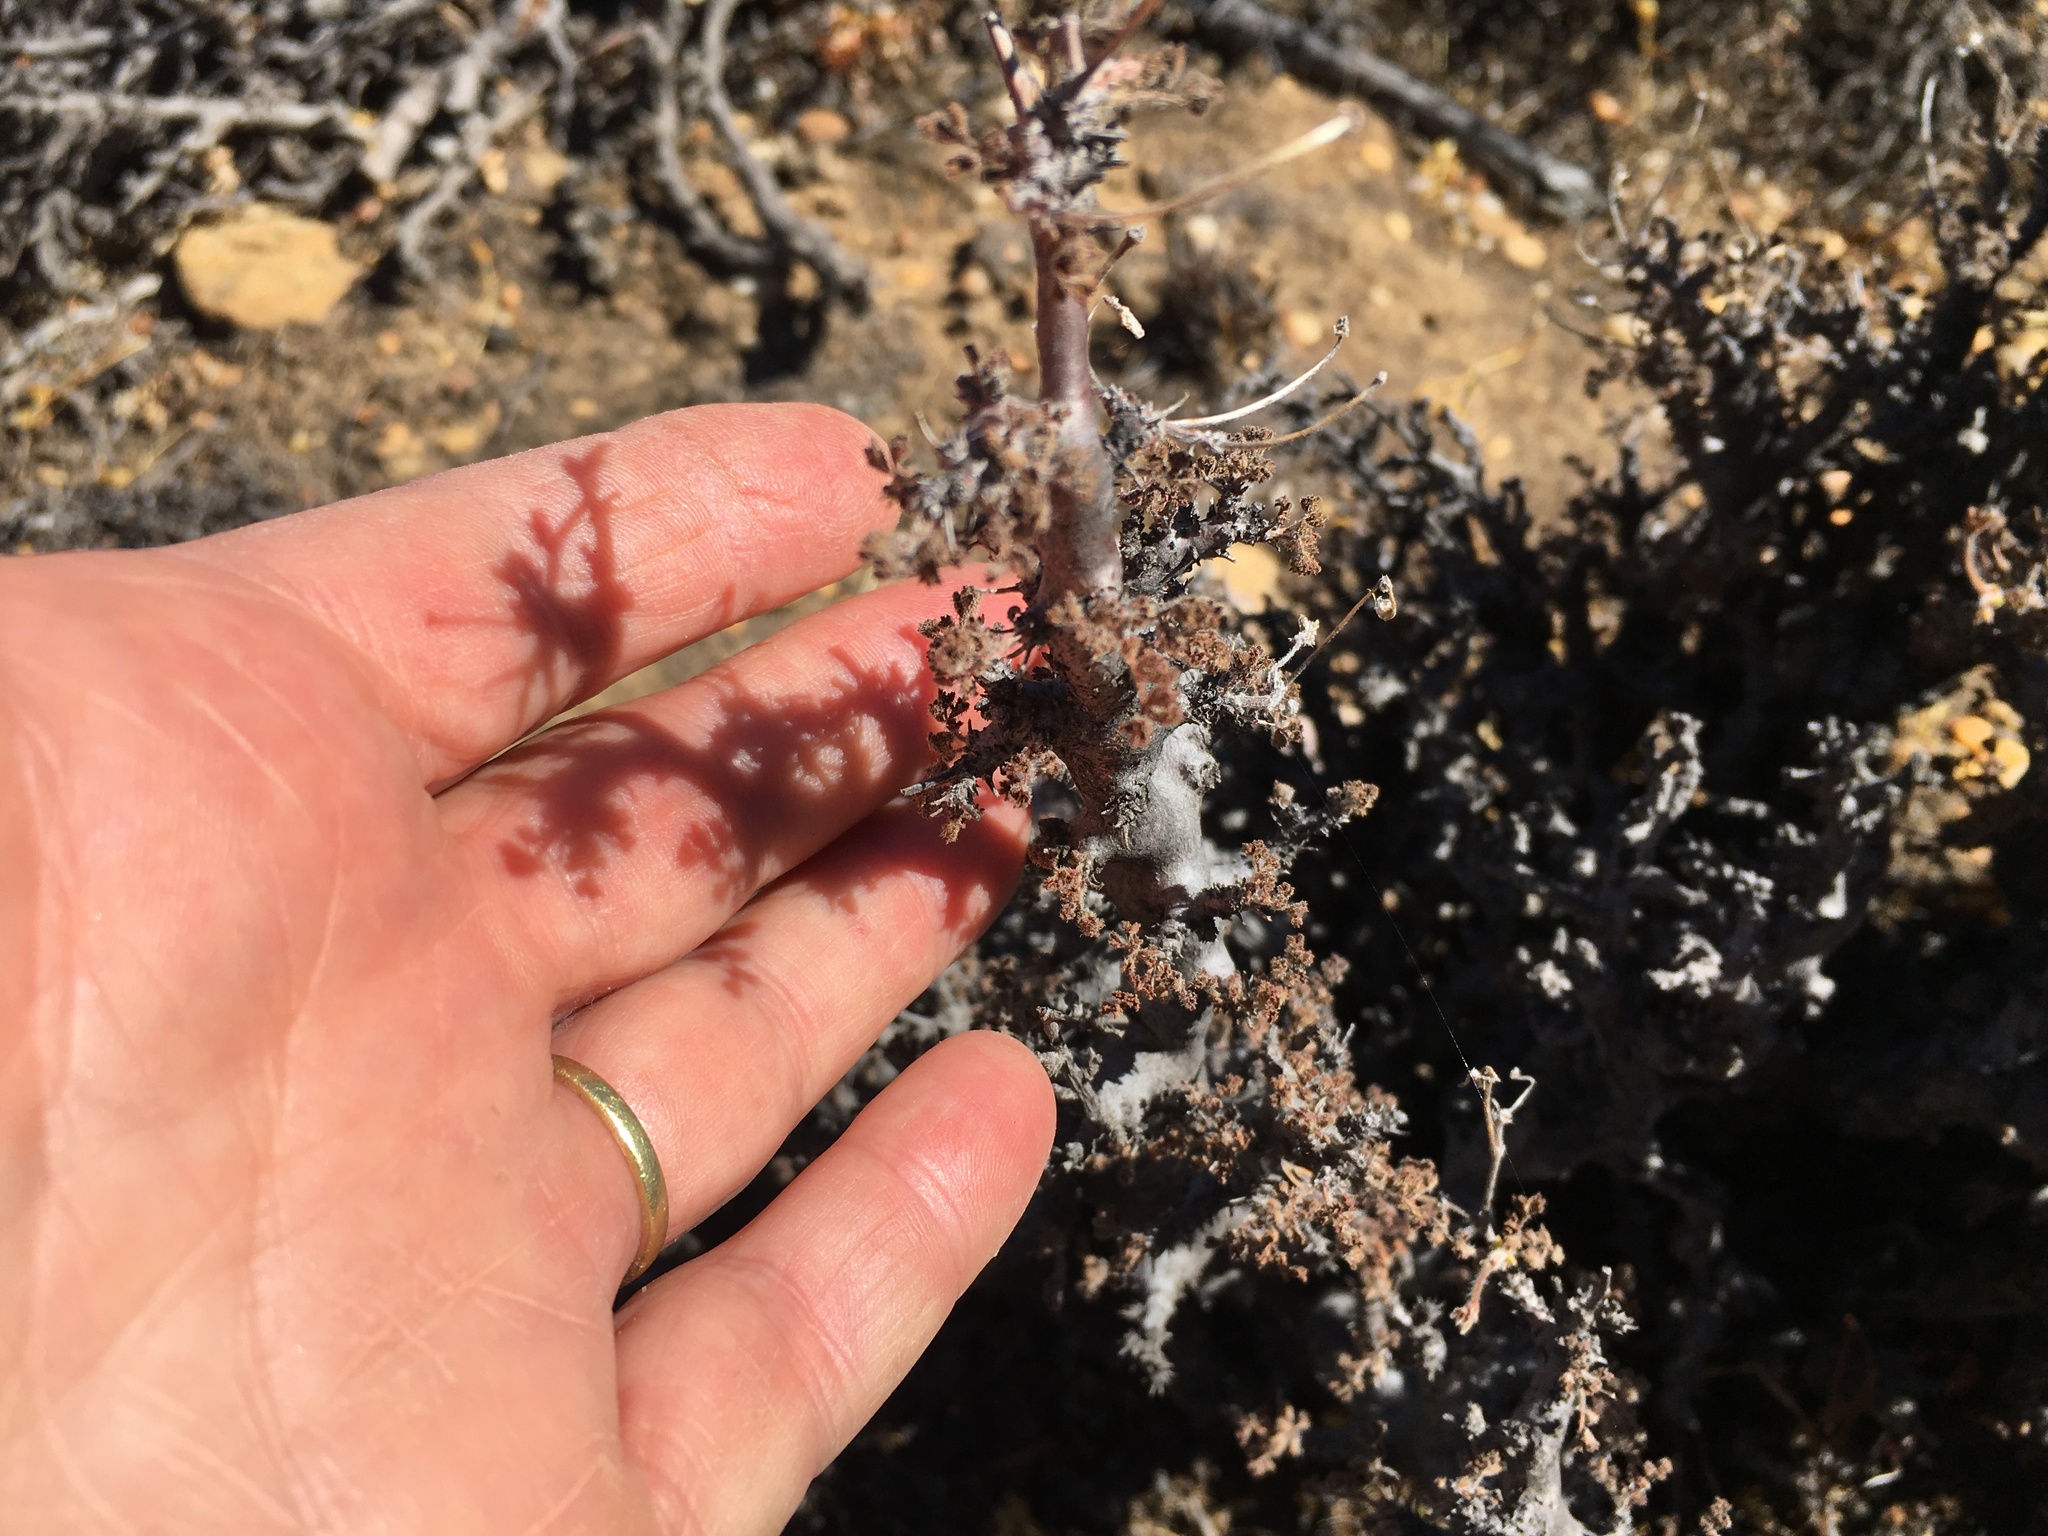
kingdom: Plantae
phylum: Tracheophyta
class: Magnoliopsida
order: Geraniales
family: Geraniaceae
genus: Pelargonium
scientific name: Pelargonium alternans
